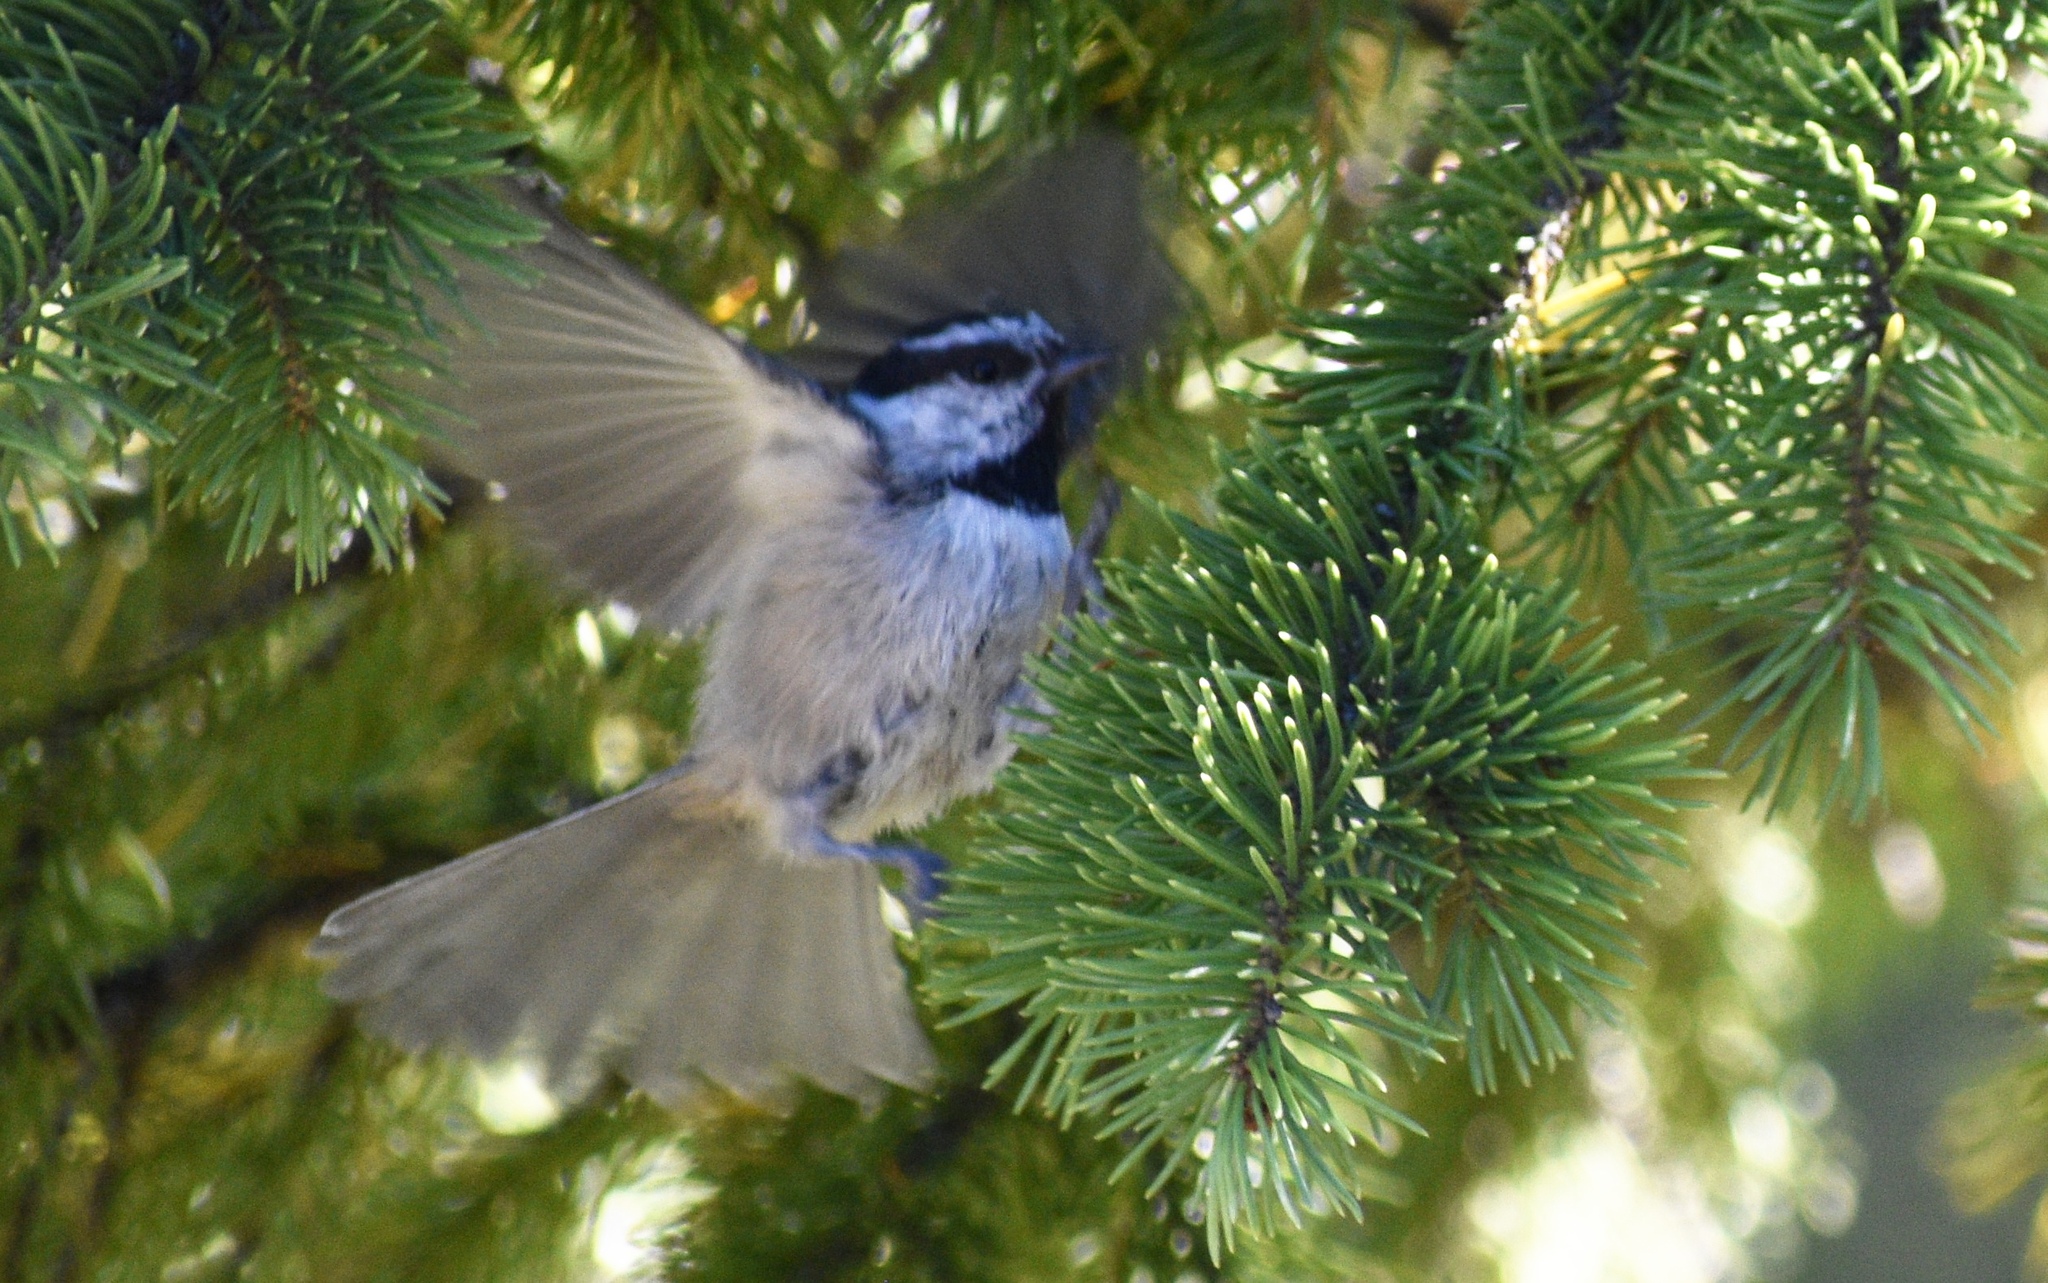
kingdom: Animalia
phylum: Chordata
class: Aves
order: Passeriformes
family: Paridae
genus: Poecile
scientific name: Poecile gambeli
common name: Mountain chickadee
